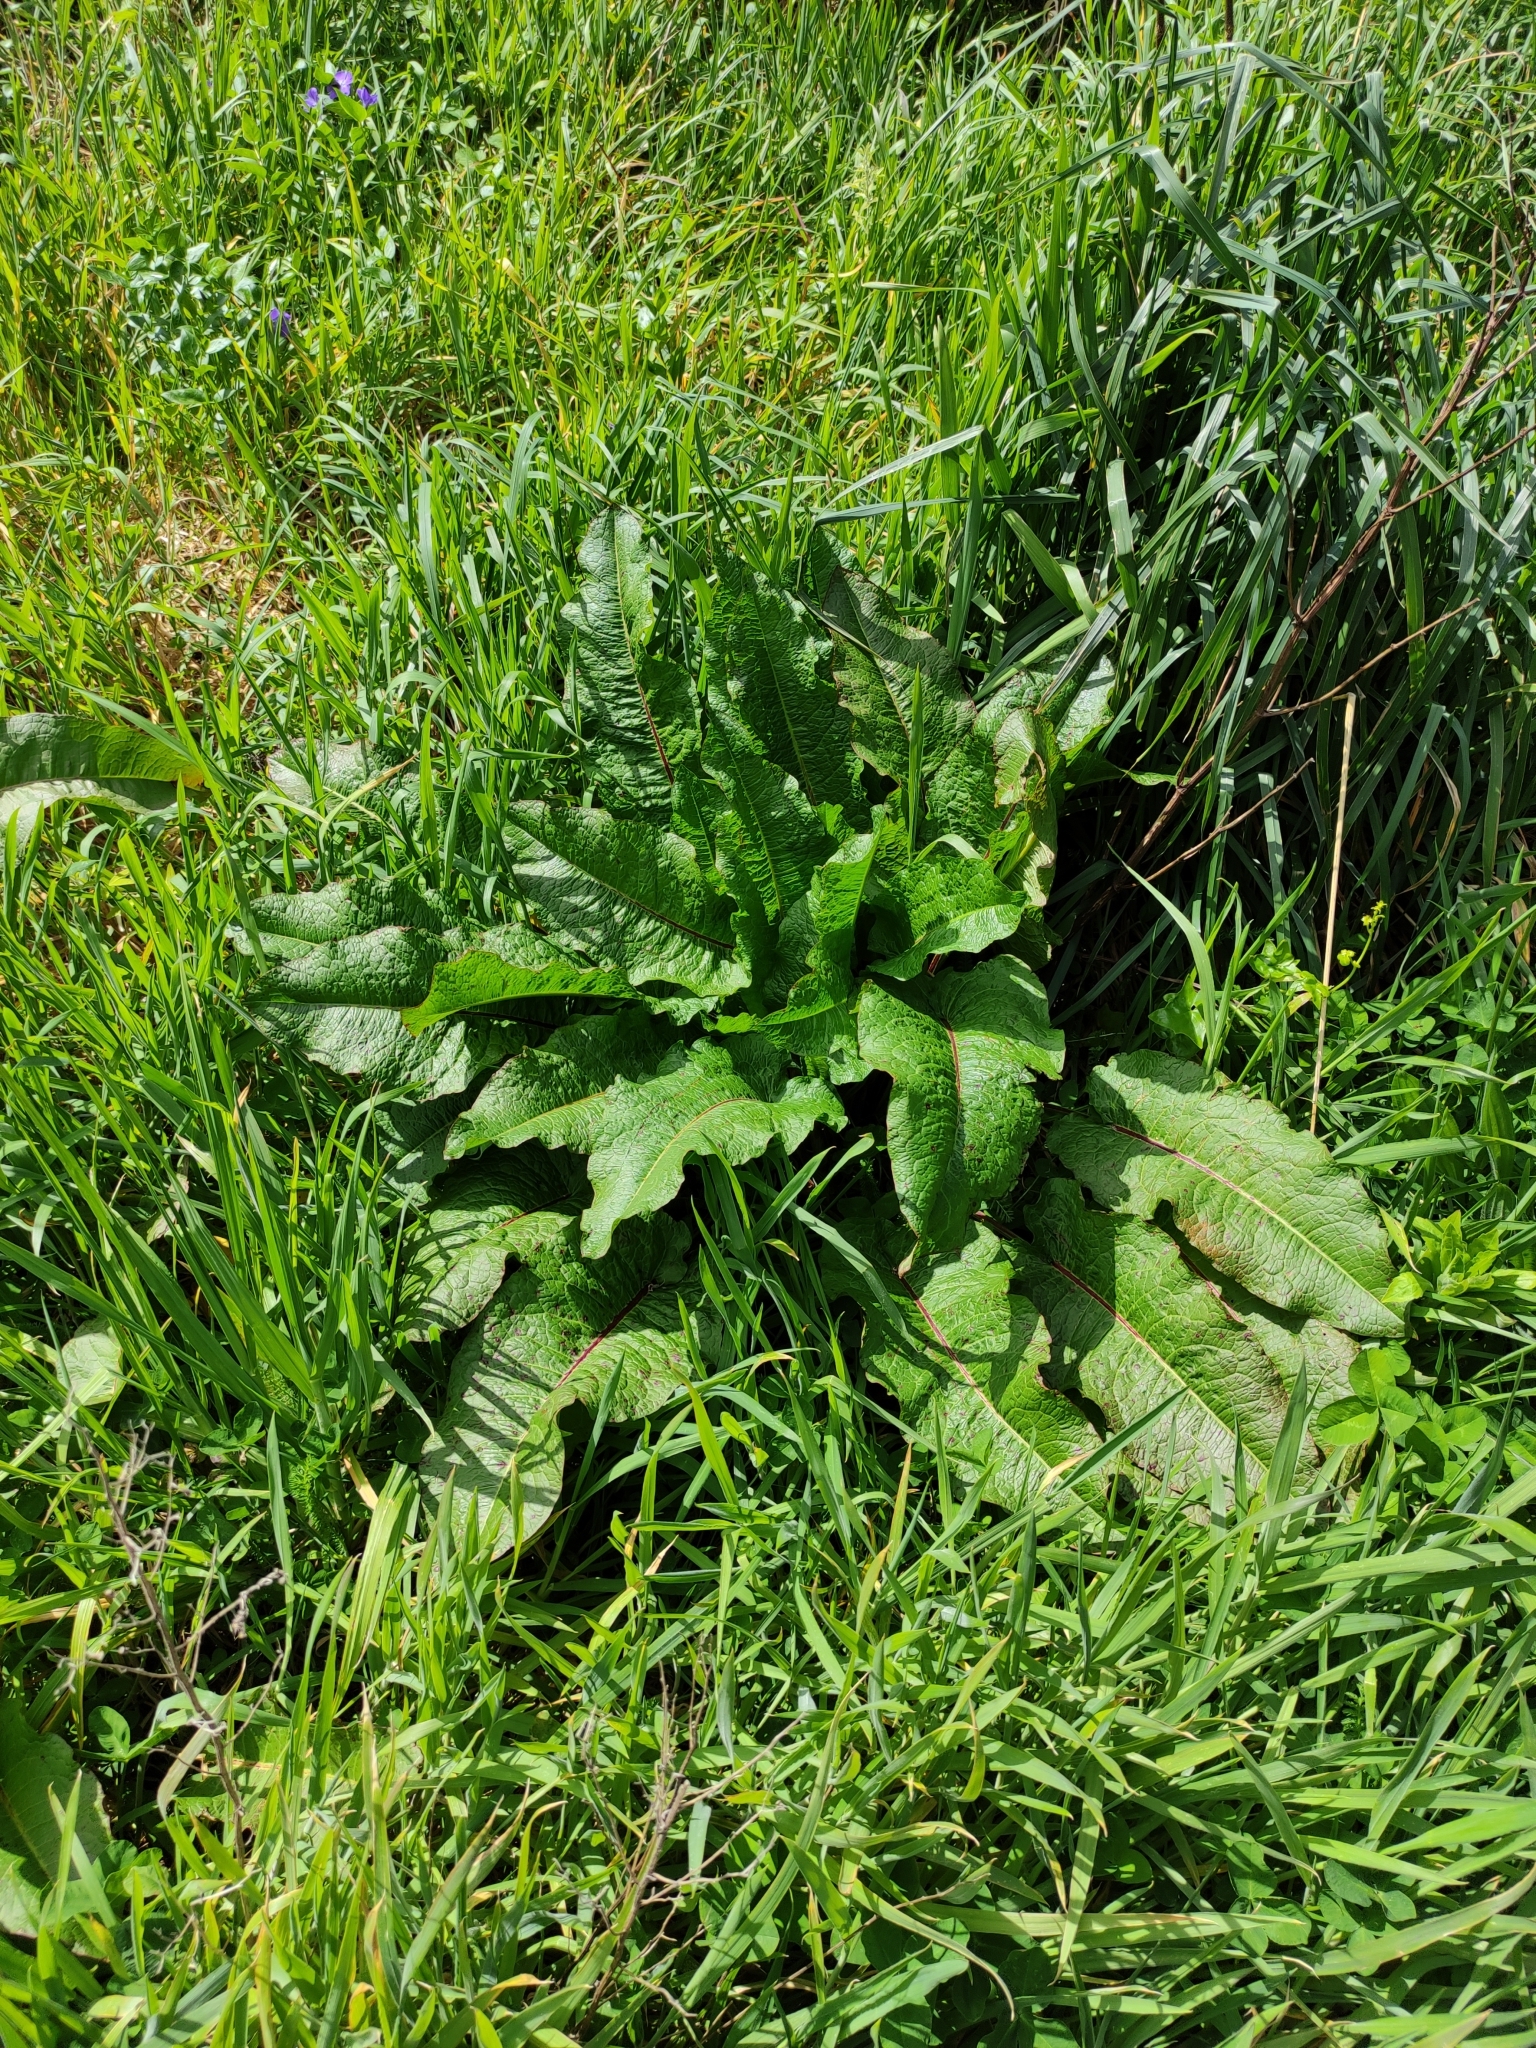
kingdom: Plantae
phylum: Tracheophyta
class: Magnoliopsida
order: Caryophyllales
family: Polygonaceae
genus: Rumex
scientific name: Rumex obtusifolius
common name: Bitter dock
